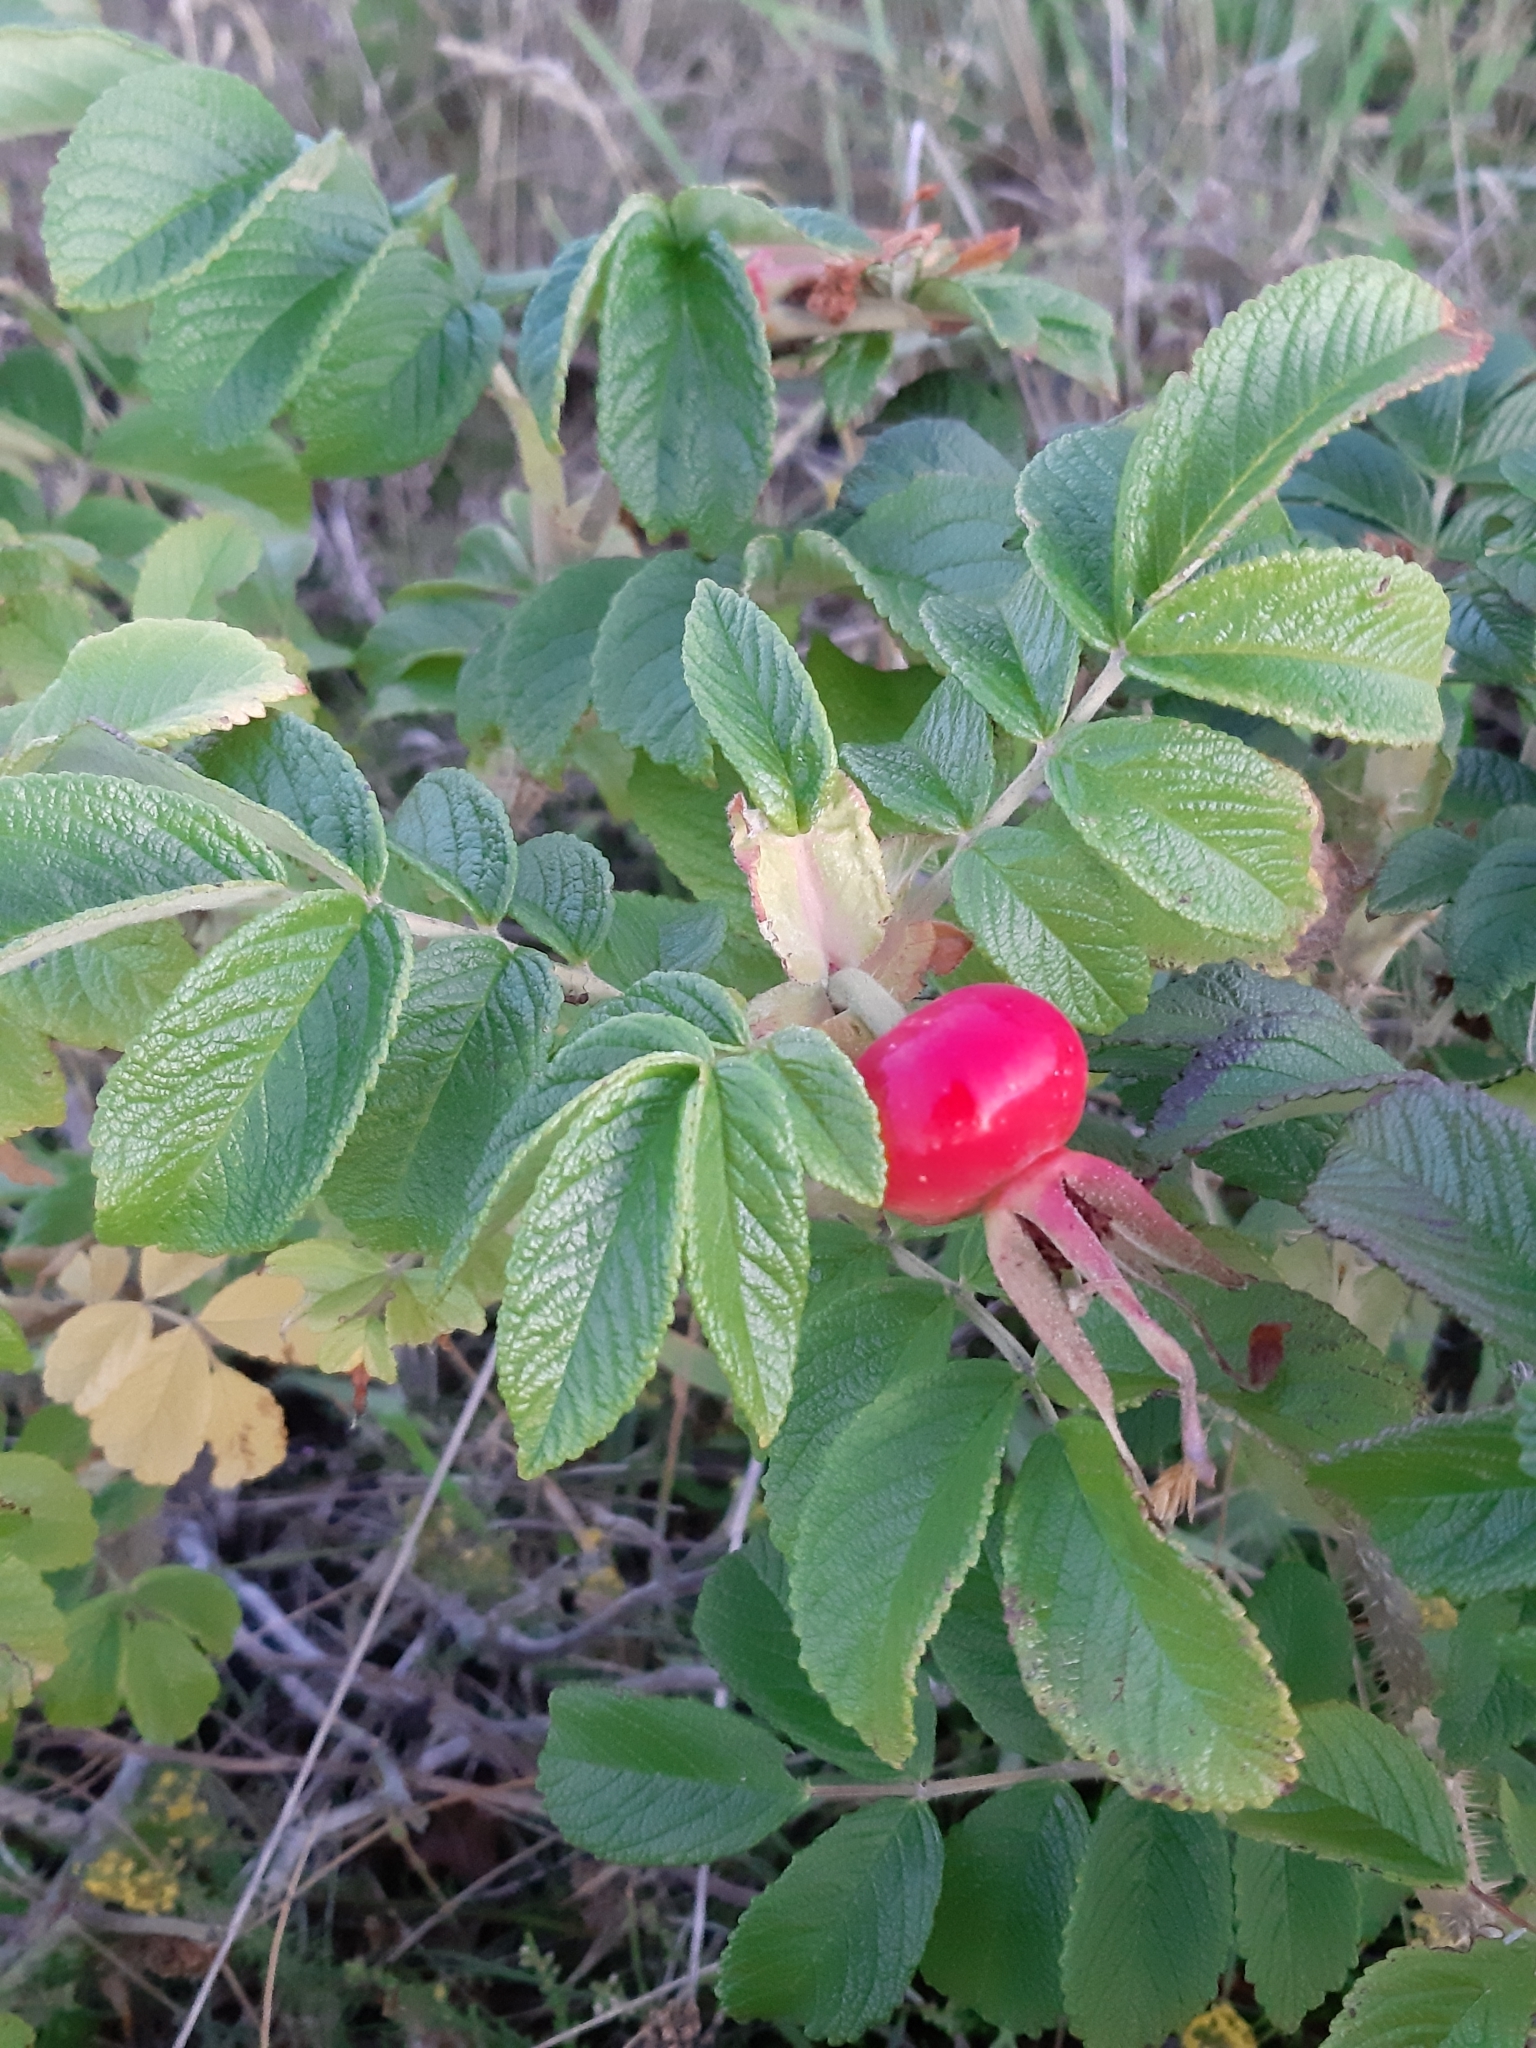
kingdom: Plantae
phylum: Tracheophyta
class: Magnoliopsida
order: Rosales
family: Rosaceae
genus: Rosa
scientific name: Rosa rugosa
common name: Japanese rose
